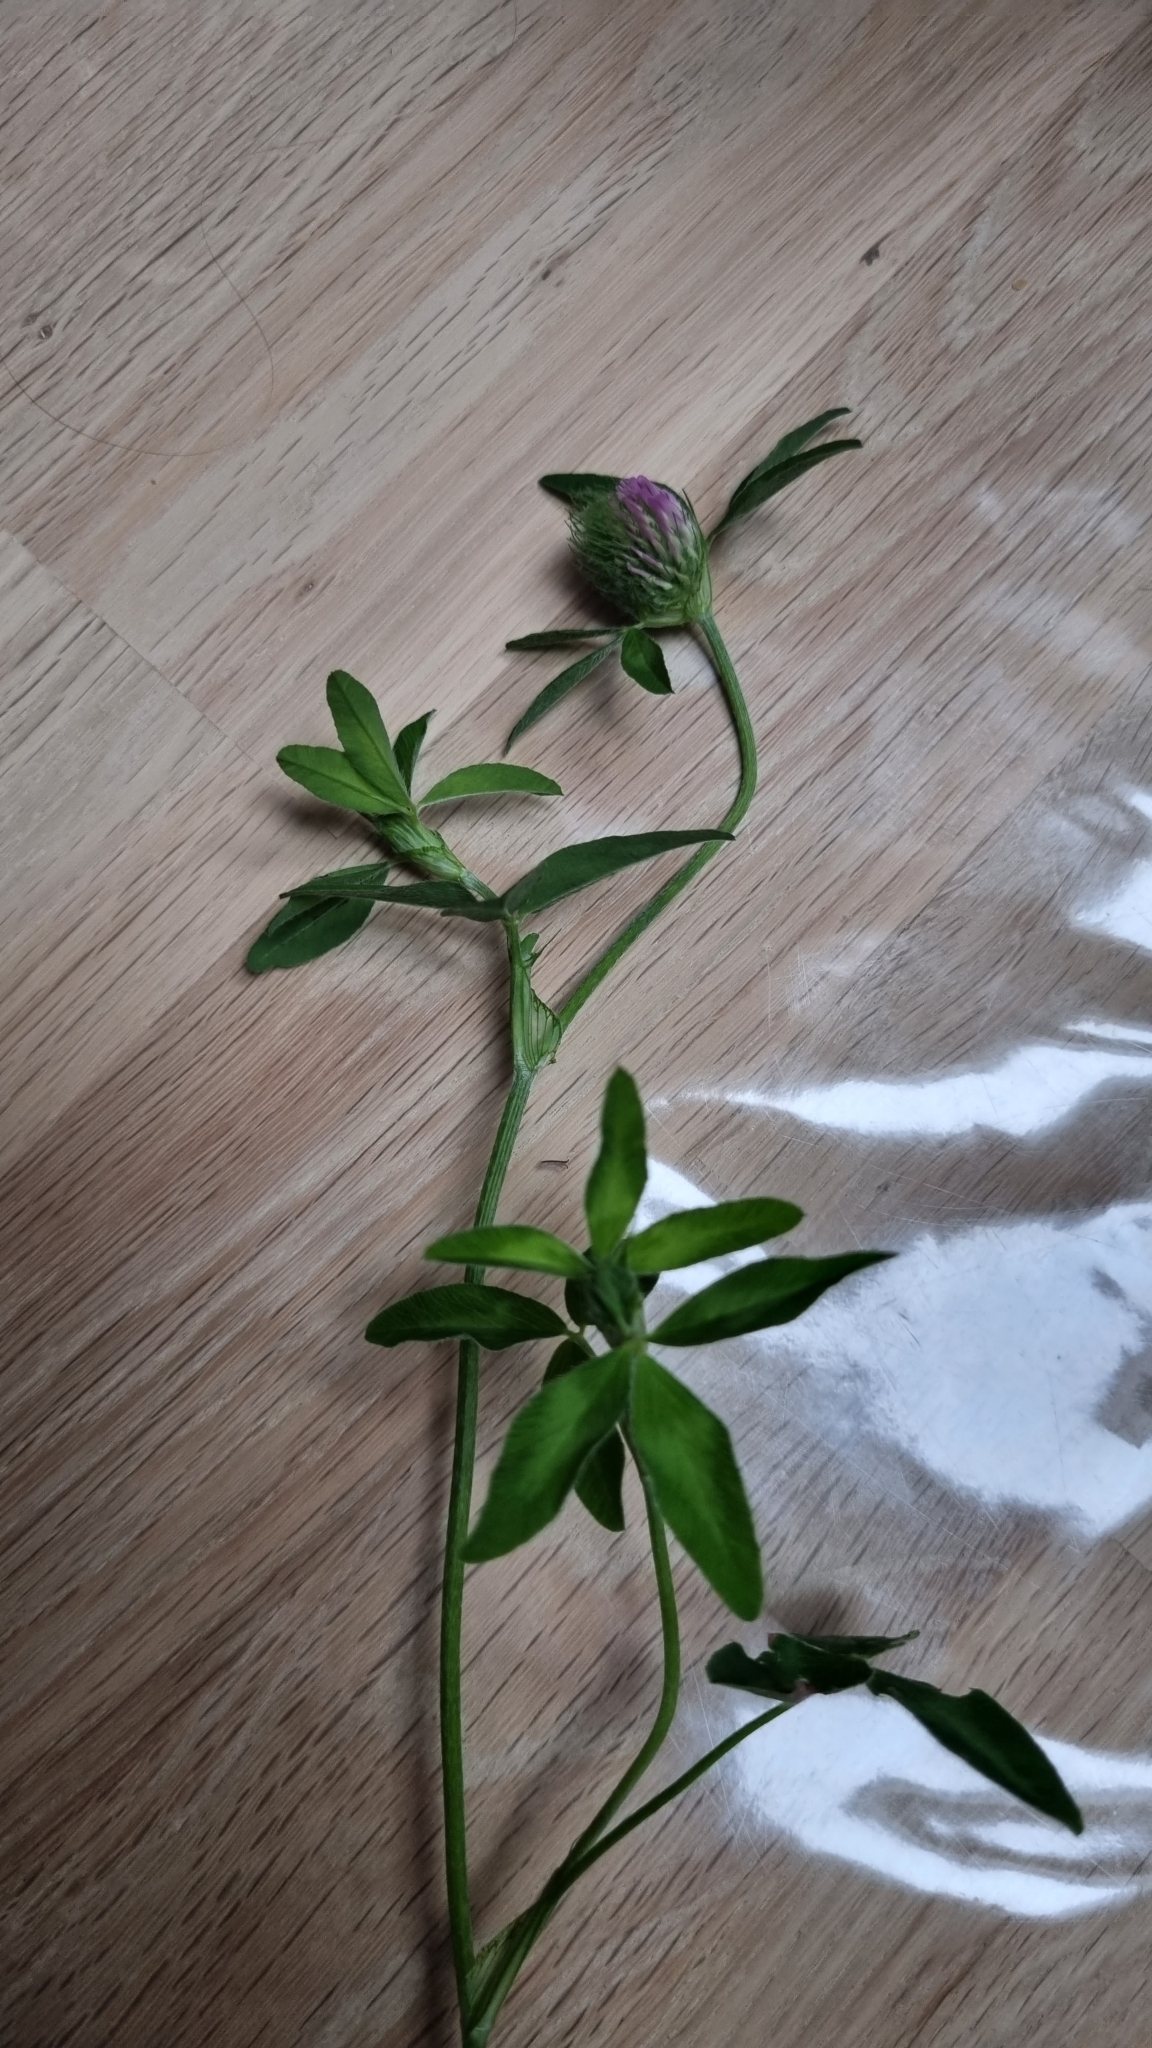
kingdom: Plantae
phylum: Tracheophyta
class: Magnoliopsida
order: Fabales
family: Fabaceae
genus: Trifolium
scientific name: Trifolium pratense
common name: Red clover
